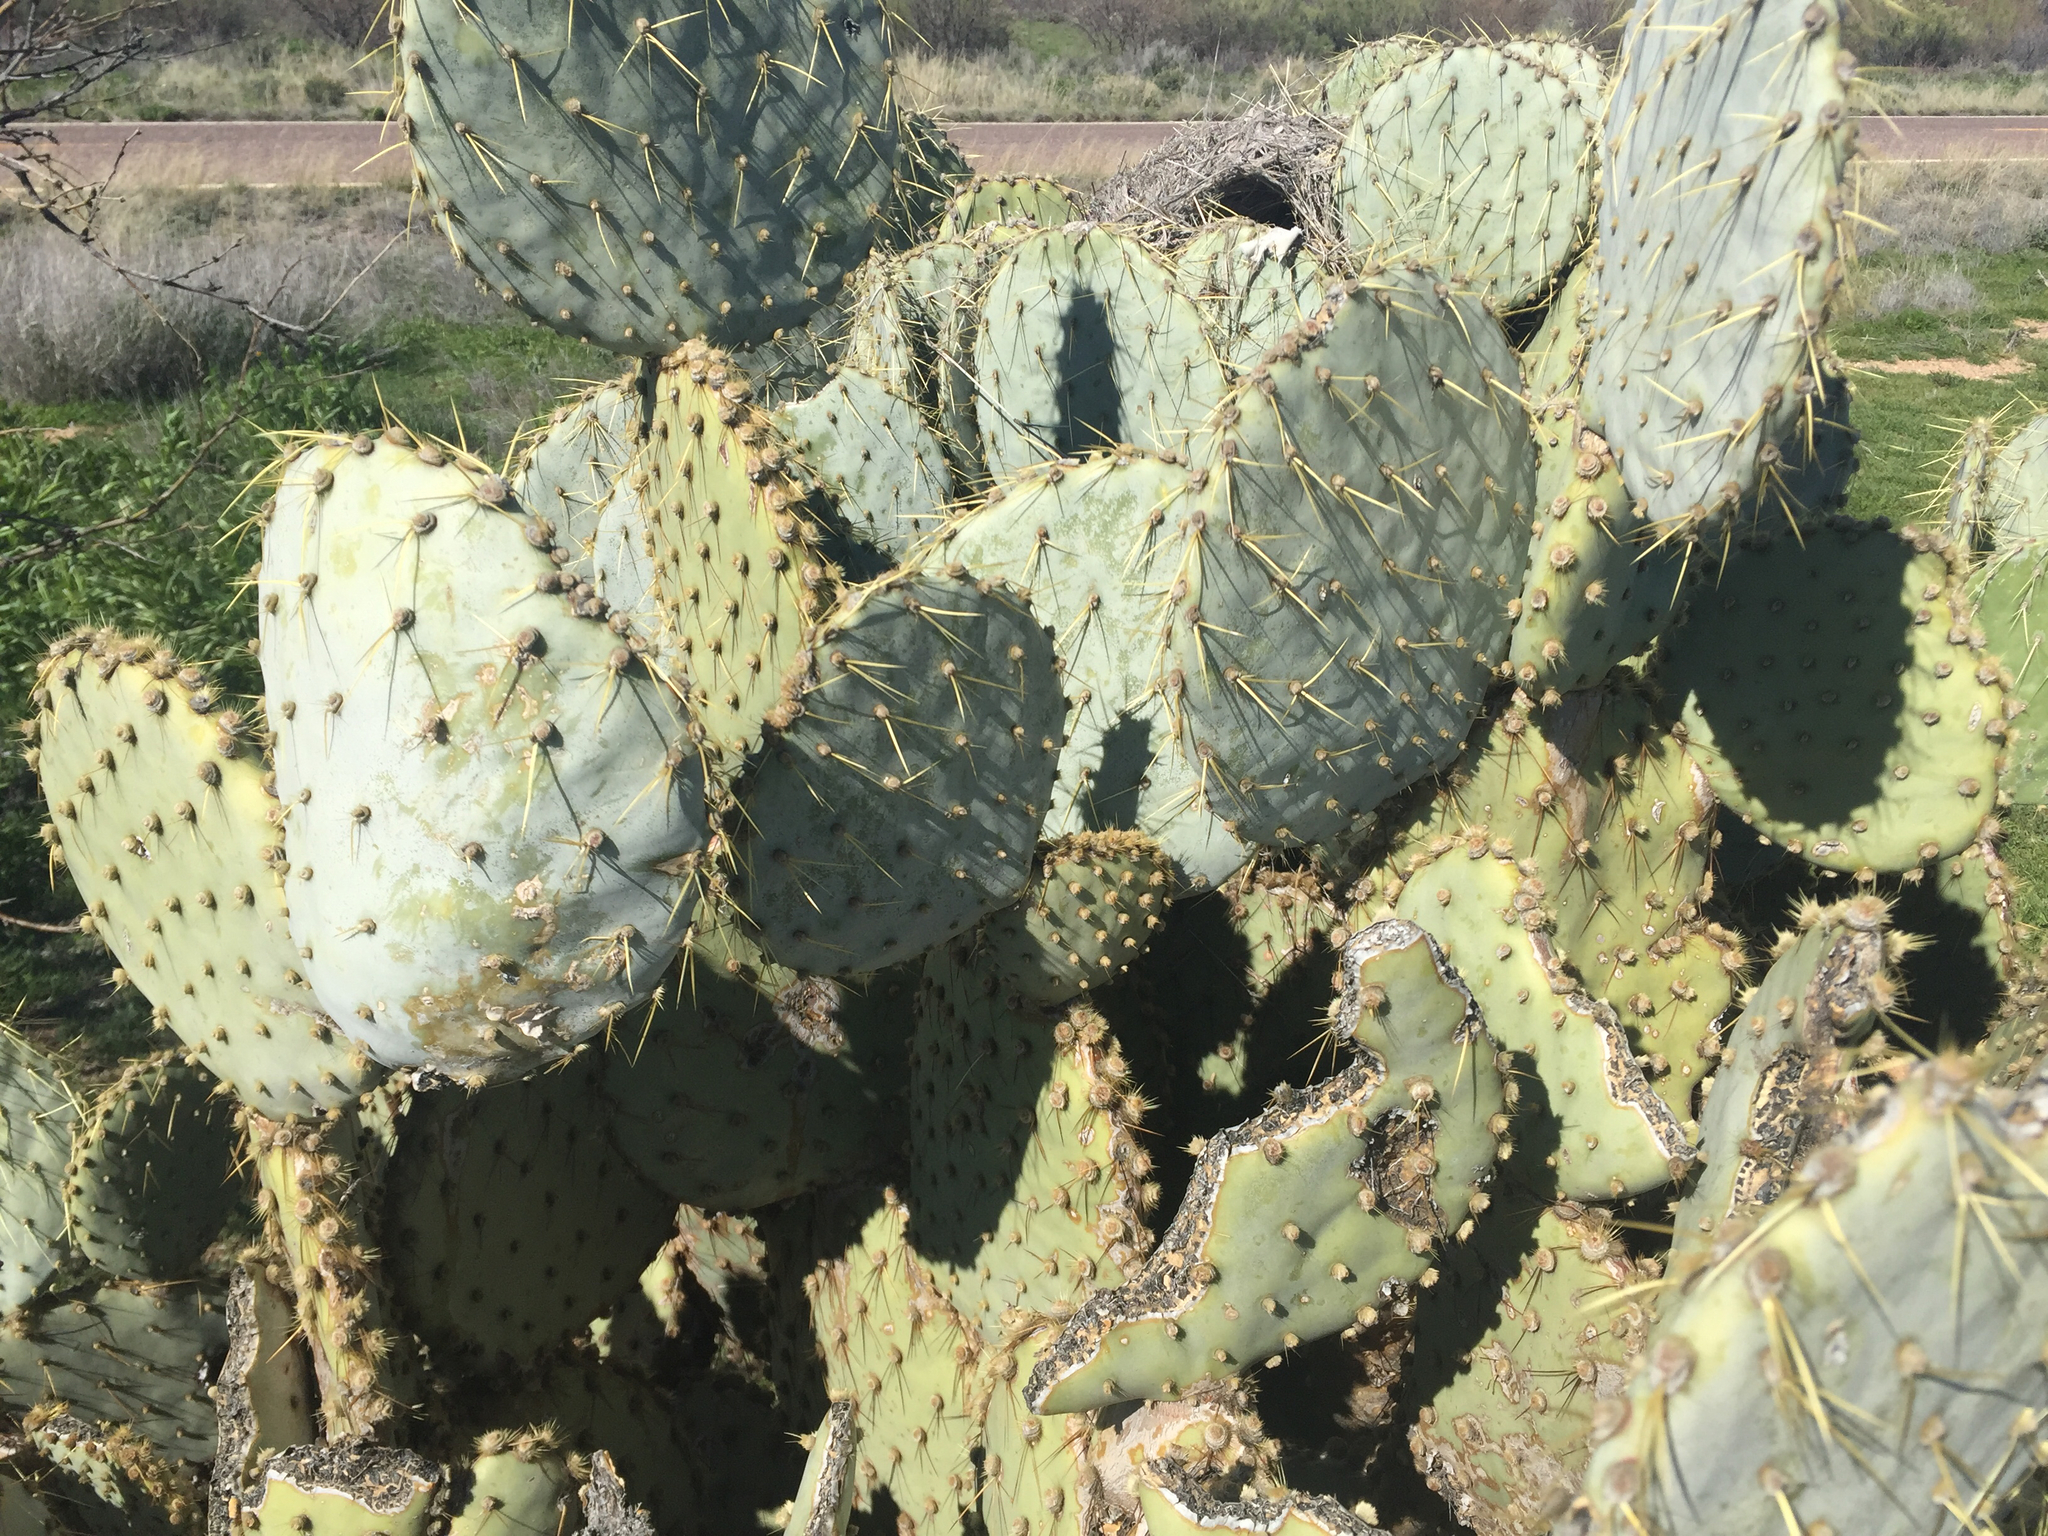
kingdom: Plantae
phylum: Tracheophyta
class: Magnoliopsida
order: Caryophyllales
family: Cactaceae
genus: Opuntia
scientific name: Opuntia chlorotica
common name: Dollar-joint prickly-pear
